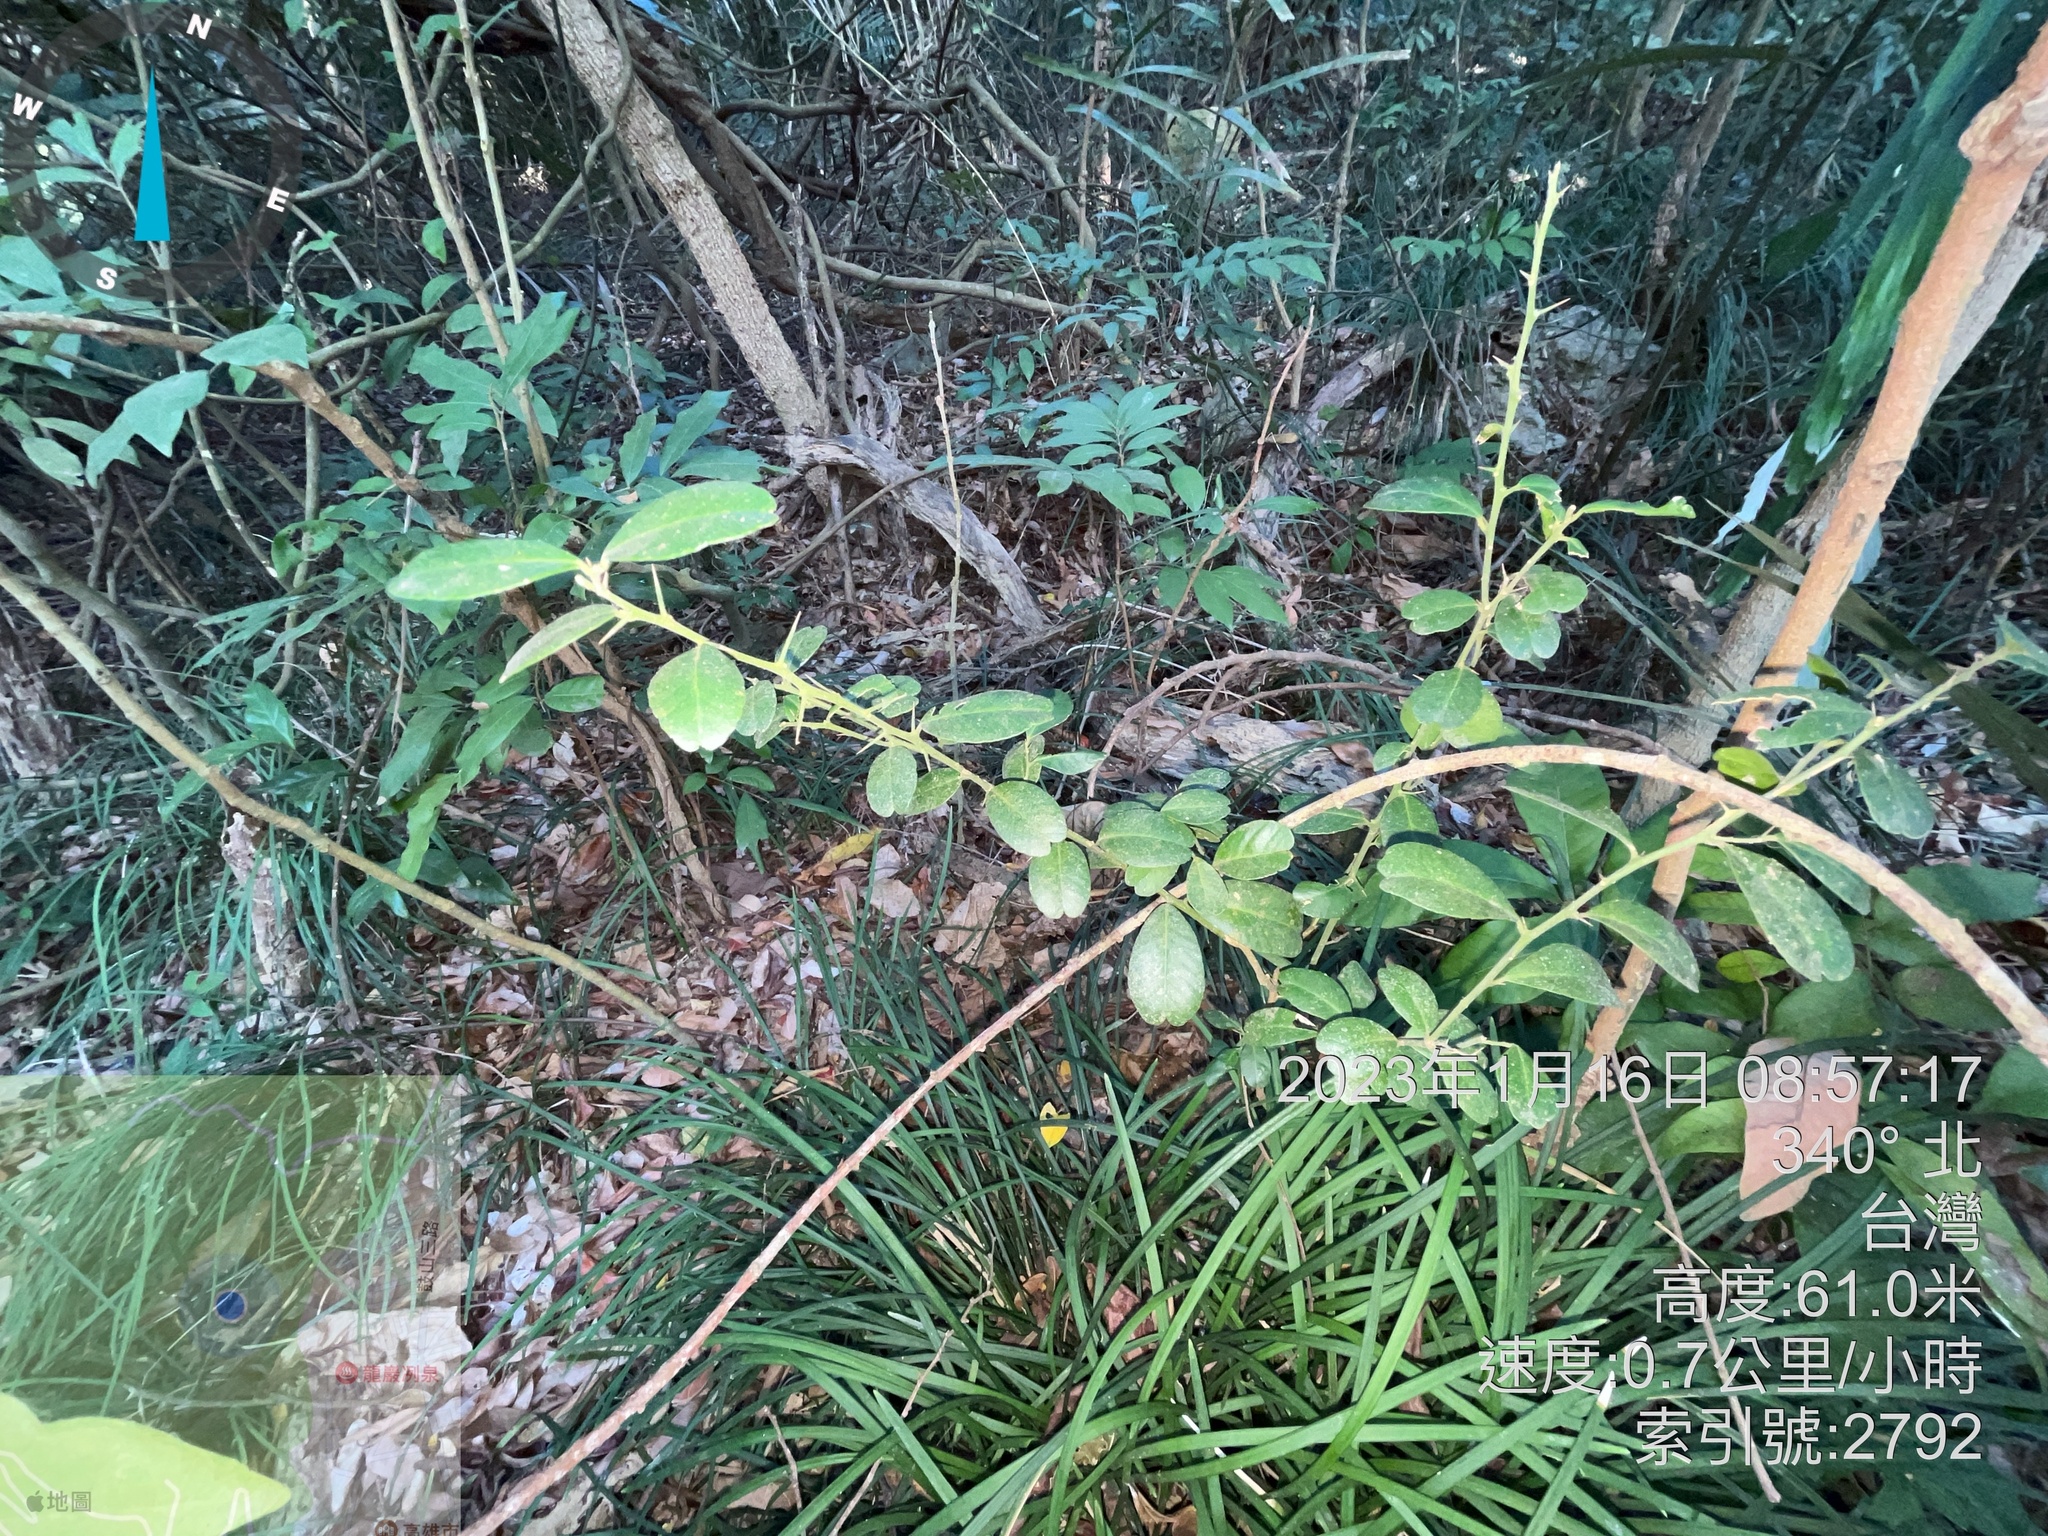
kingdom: Plantae
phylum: Tracheophyta
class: Magnoliopsida
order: Sapindales
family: Rutaceae
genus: Atalantia
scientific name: Atalantia buxifolia
